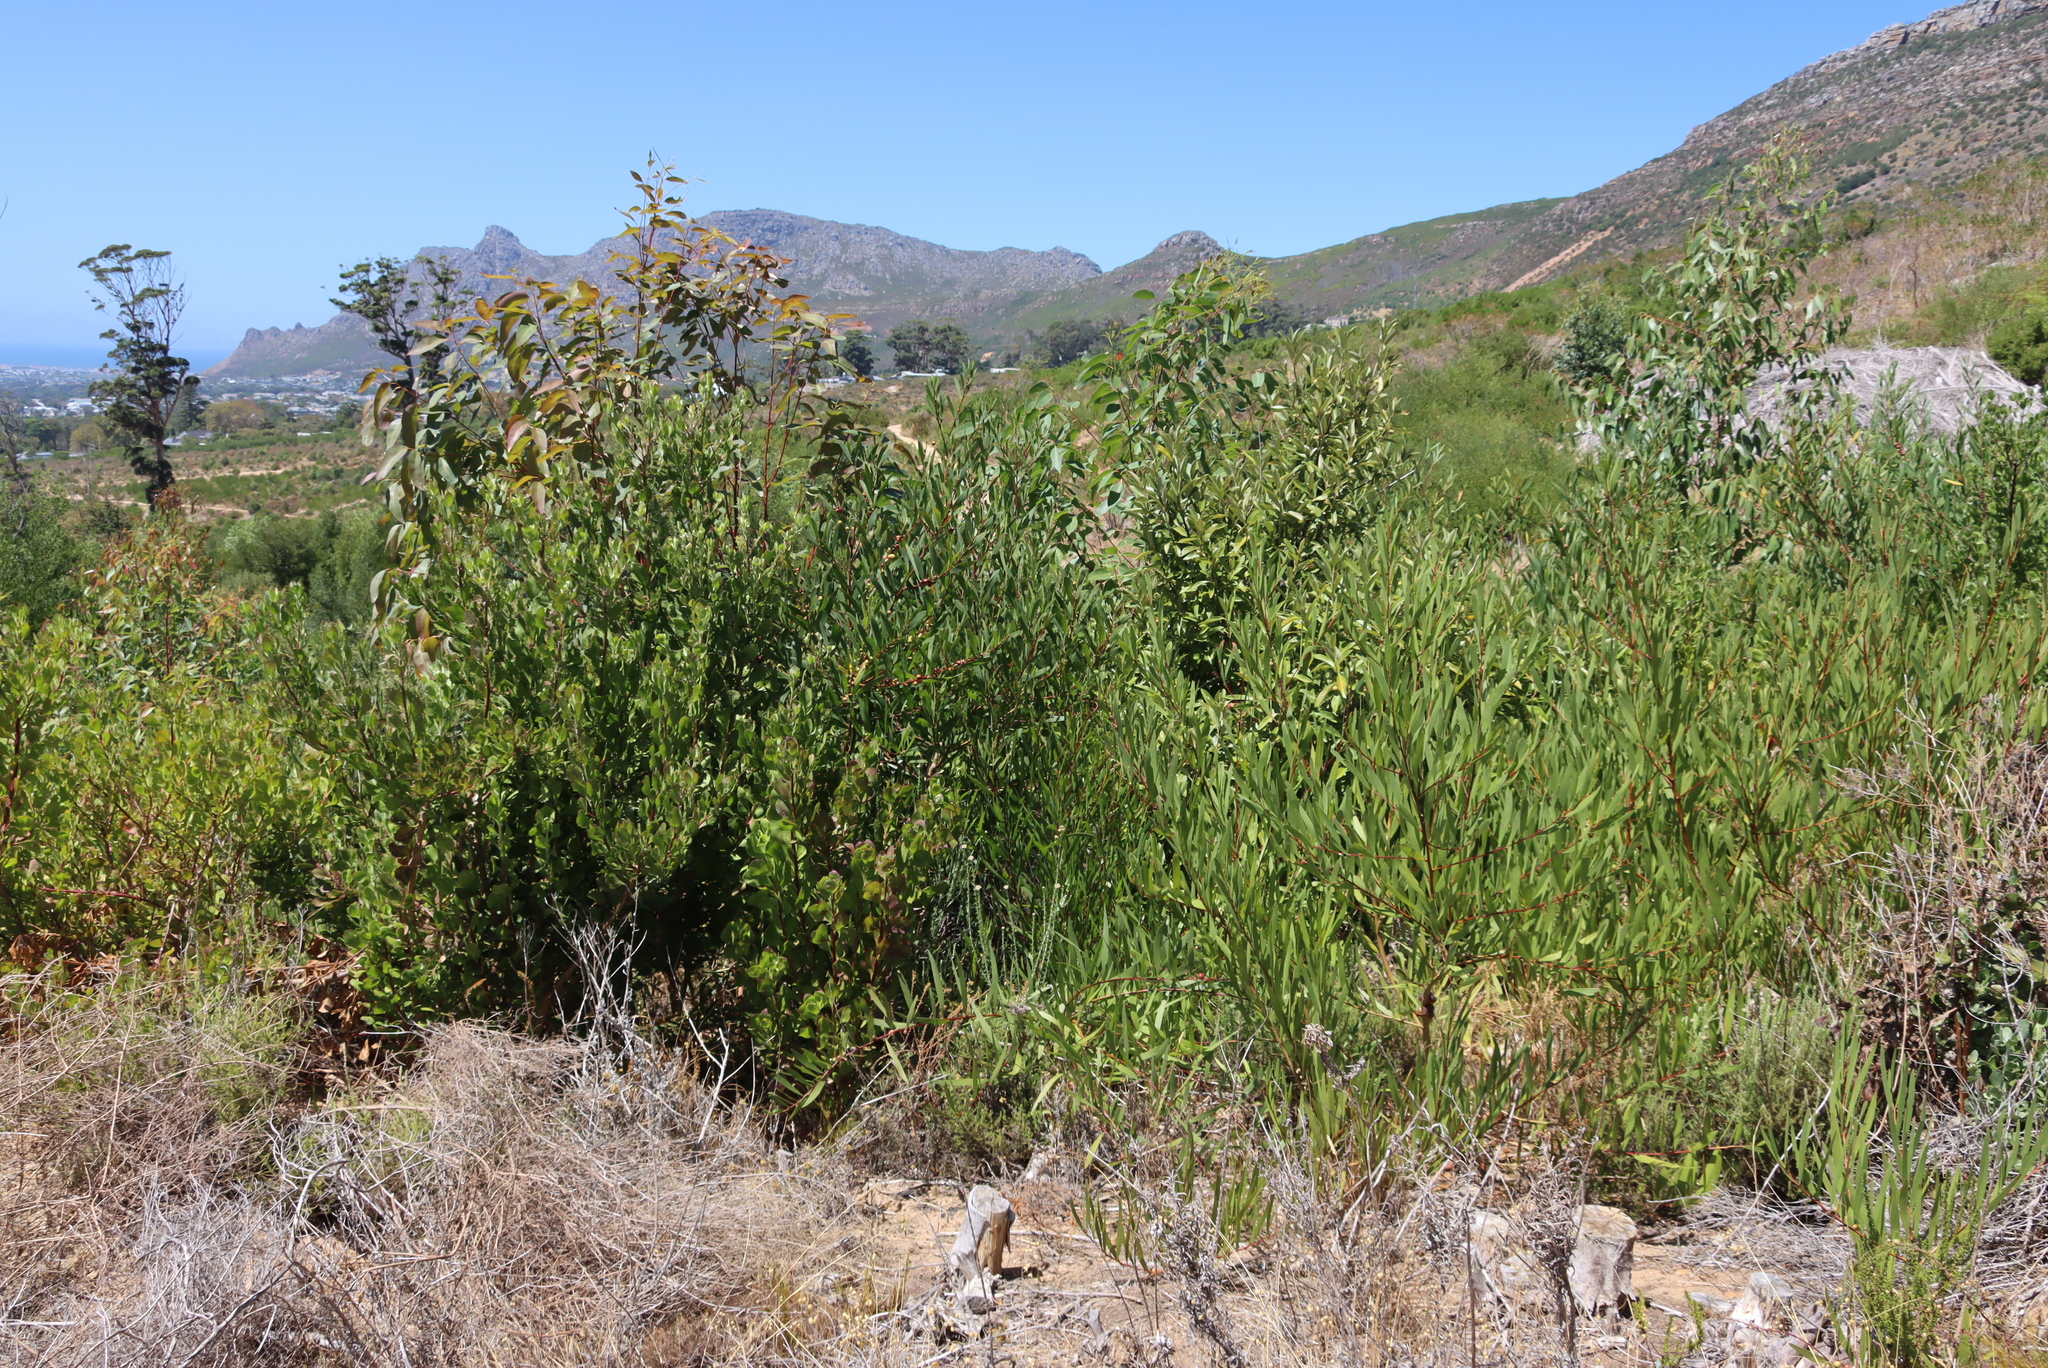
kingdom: Plantae
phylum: Tracheophyta
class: Magnoliopsida
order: Fabales
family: Fabaceae
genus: Acacia
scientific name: Acacia longifolia
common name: Sydney golden wattle
